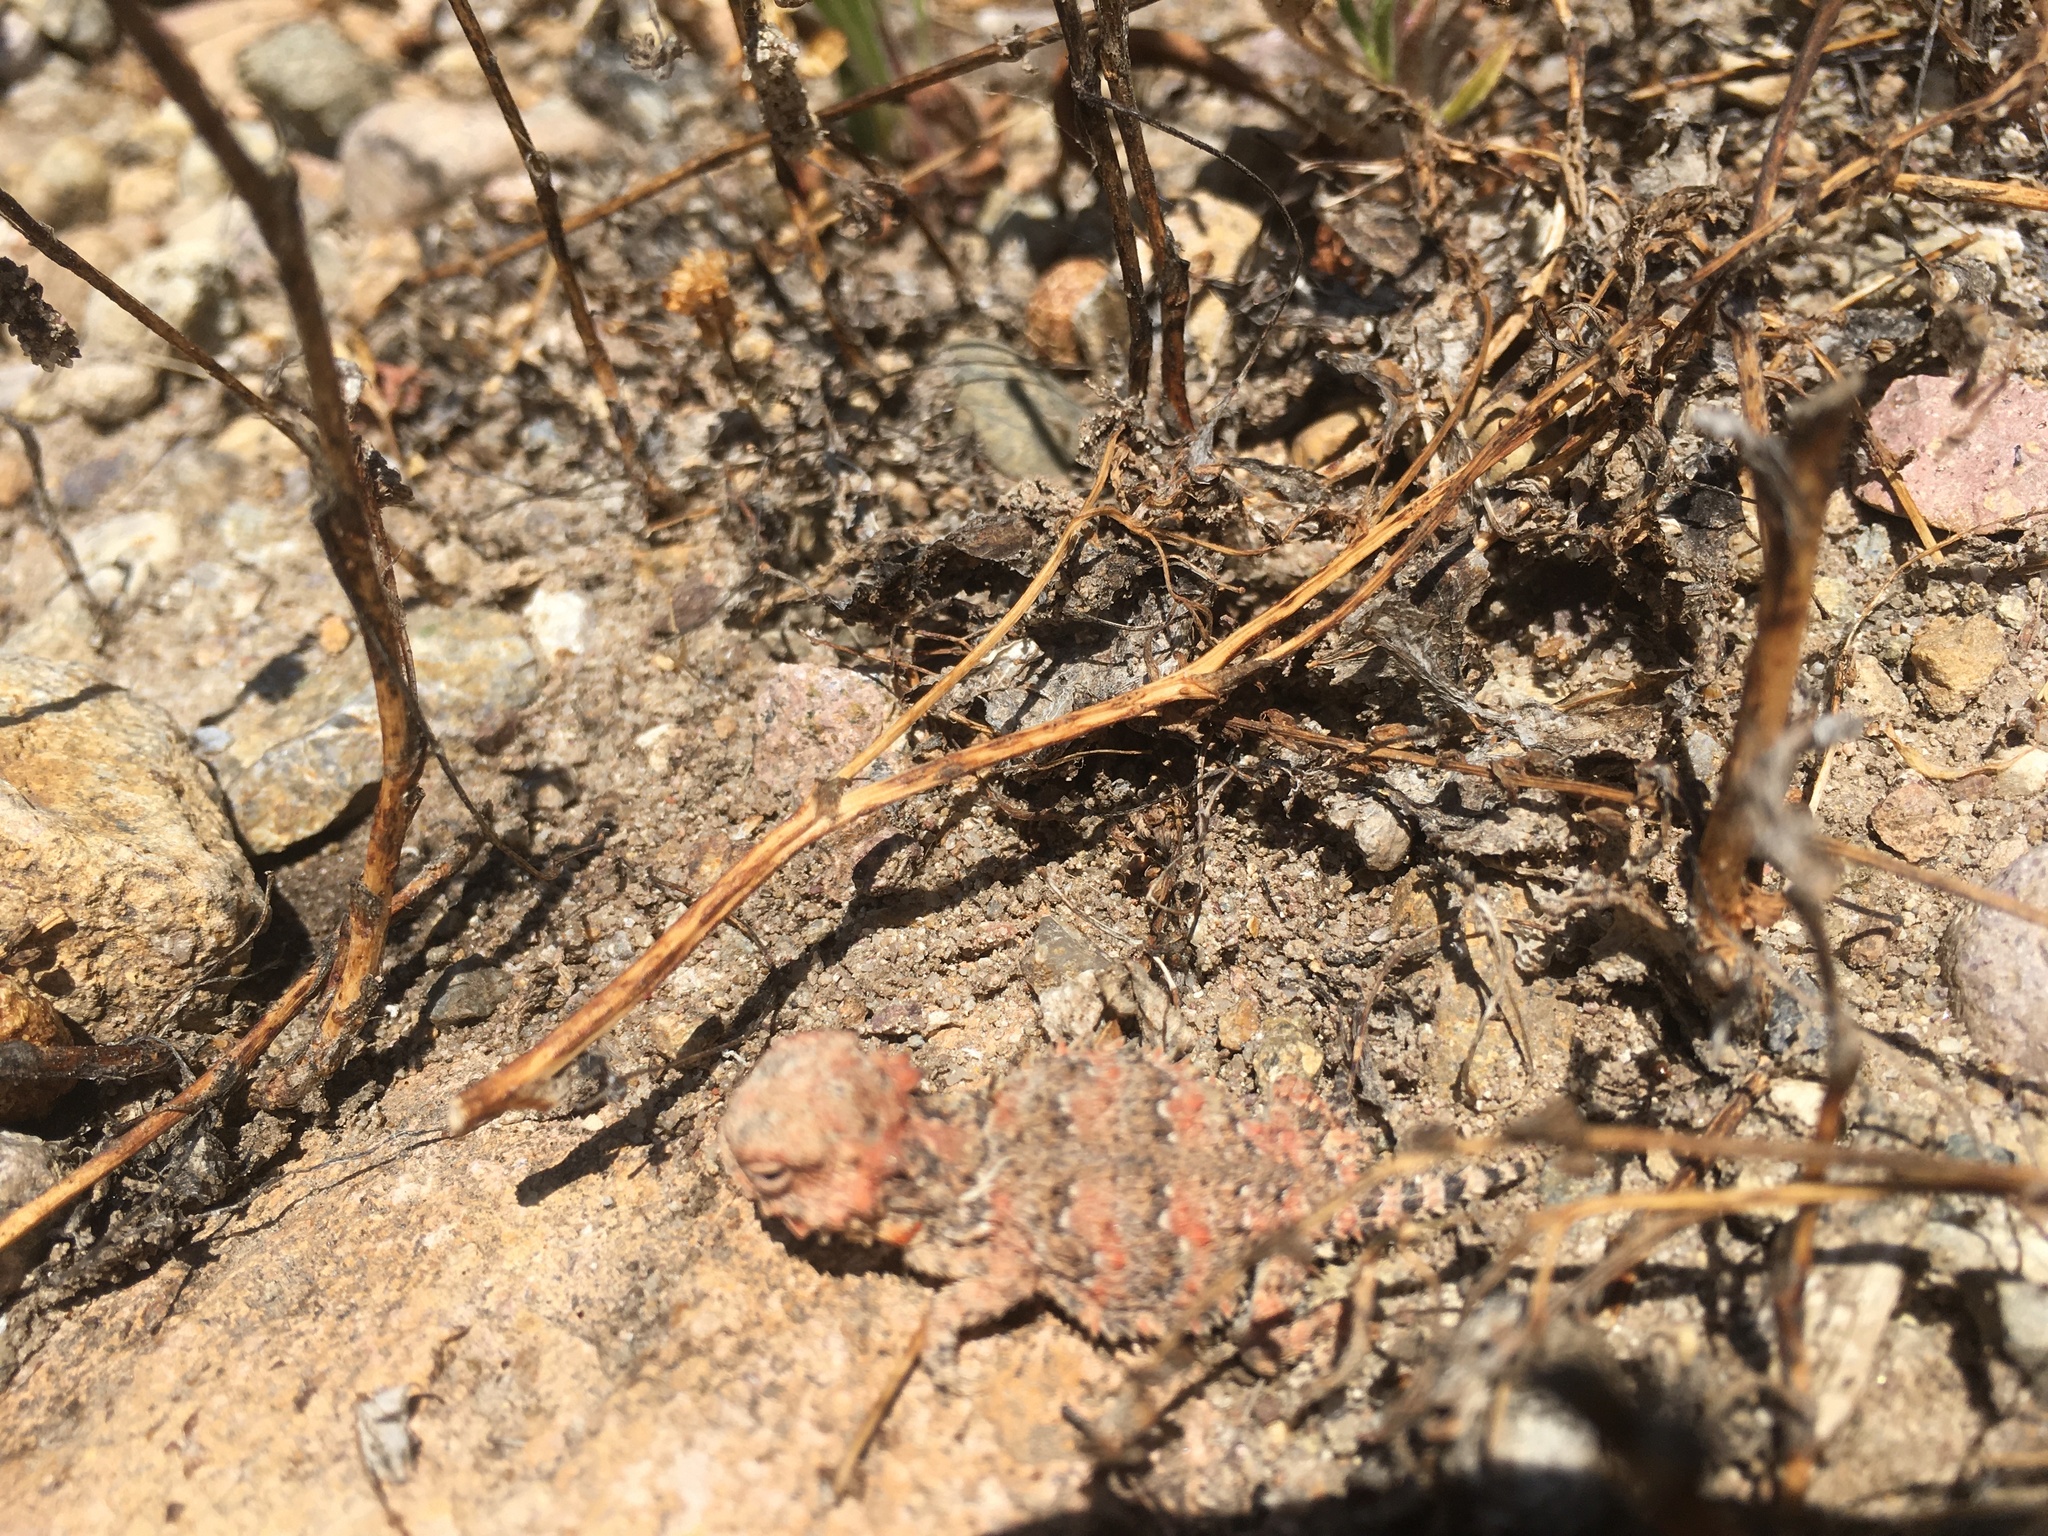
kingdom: Animalia
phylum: Chordata
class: Squamata
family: Phrynosomatidae
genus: Phrynosoma
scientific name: Phrynosoma blainvillii
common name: San diego horned lizard
